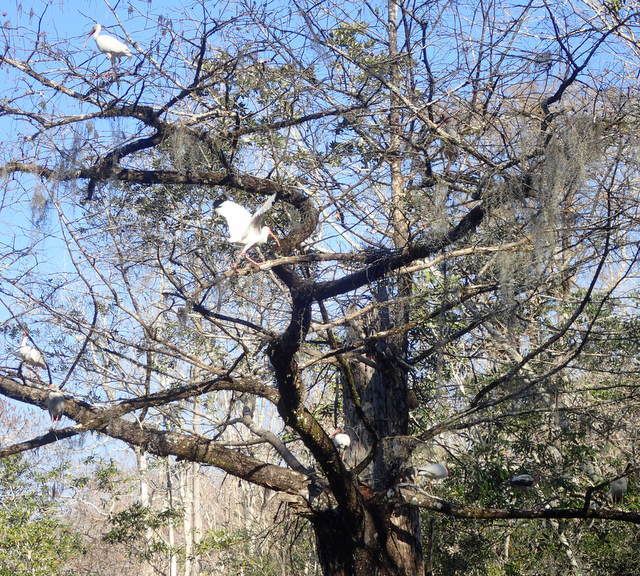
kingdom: Animalia
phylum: Chordata
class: Aves
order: Pelecaniformes
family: Threskiornithidae
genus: Eudocimus
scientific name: Eudocimus albus
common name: White ibis
